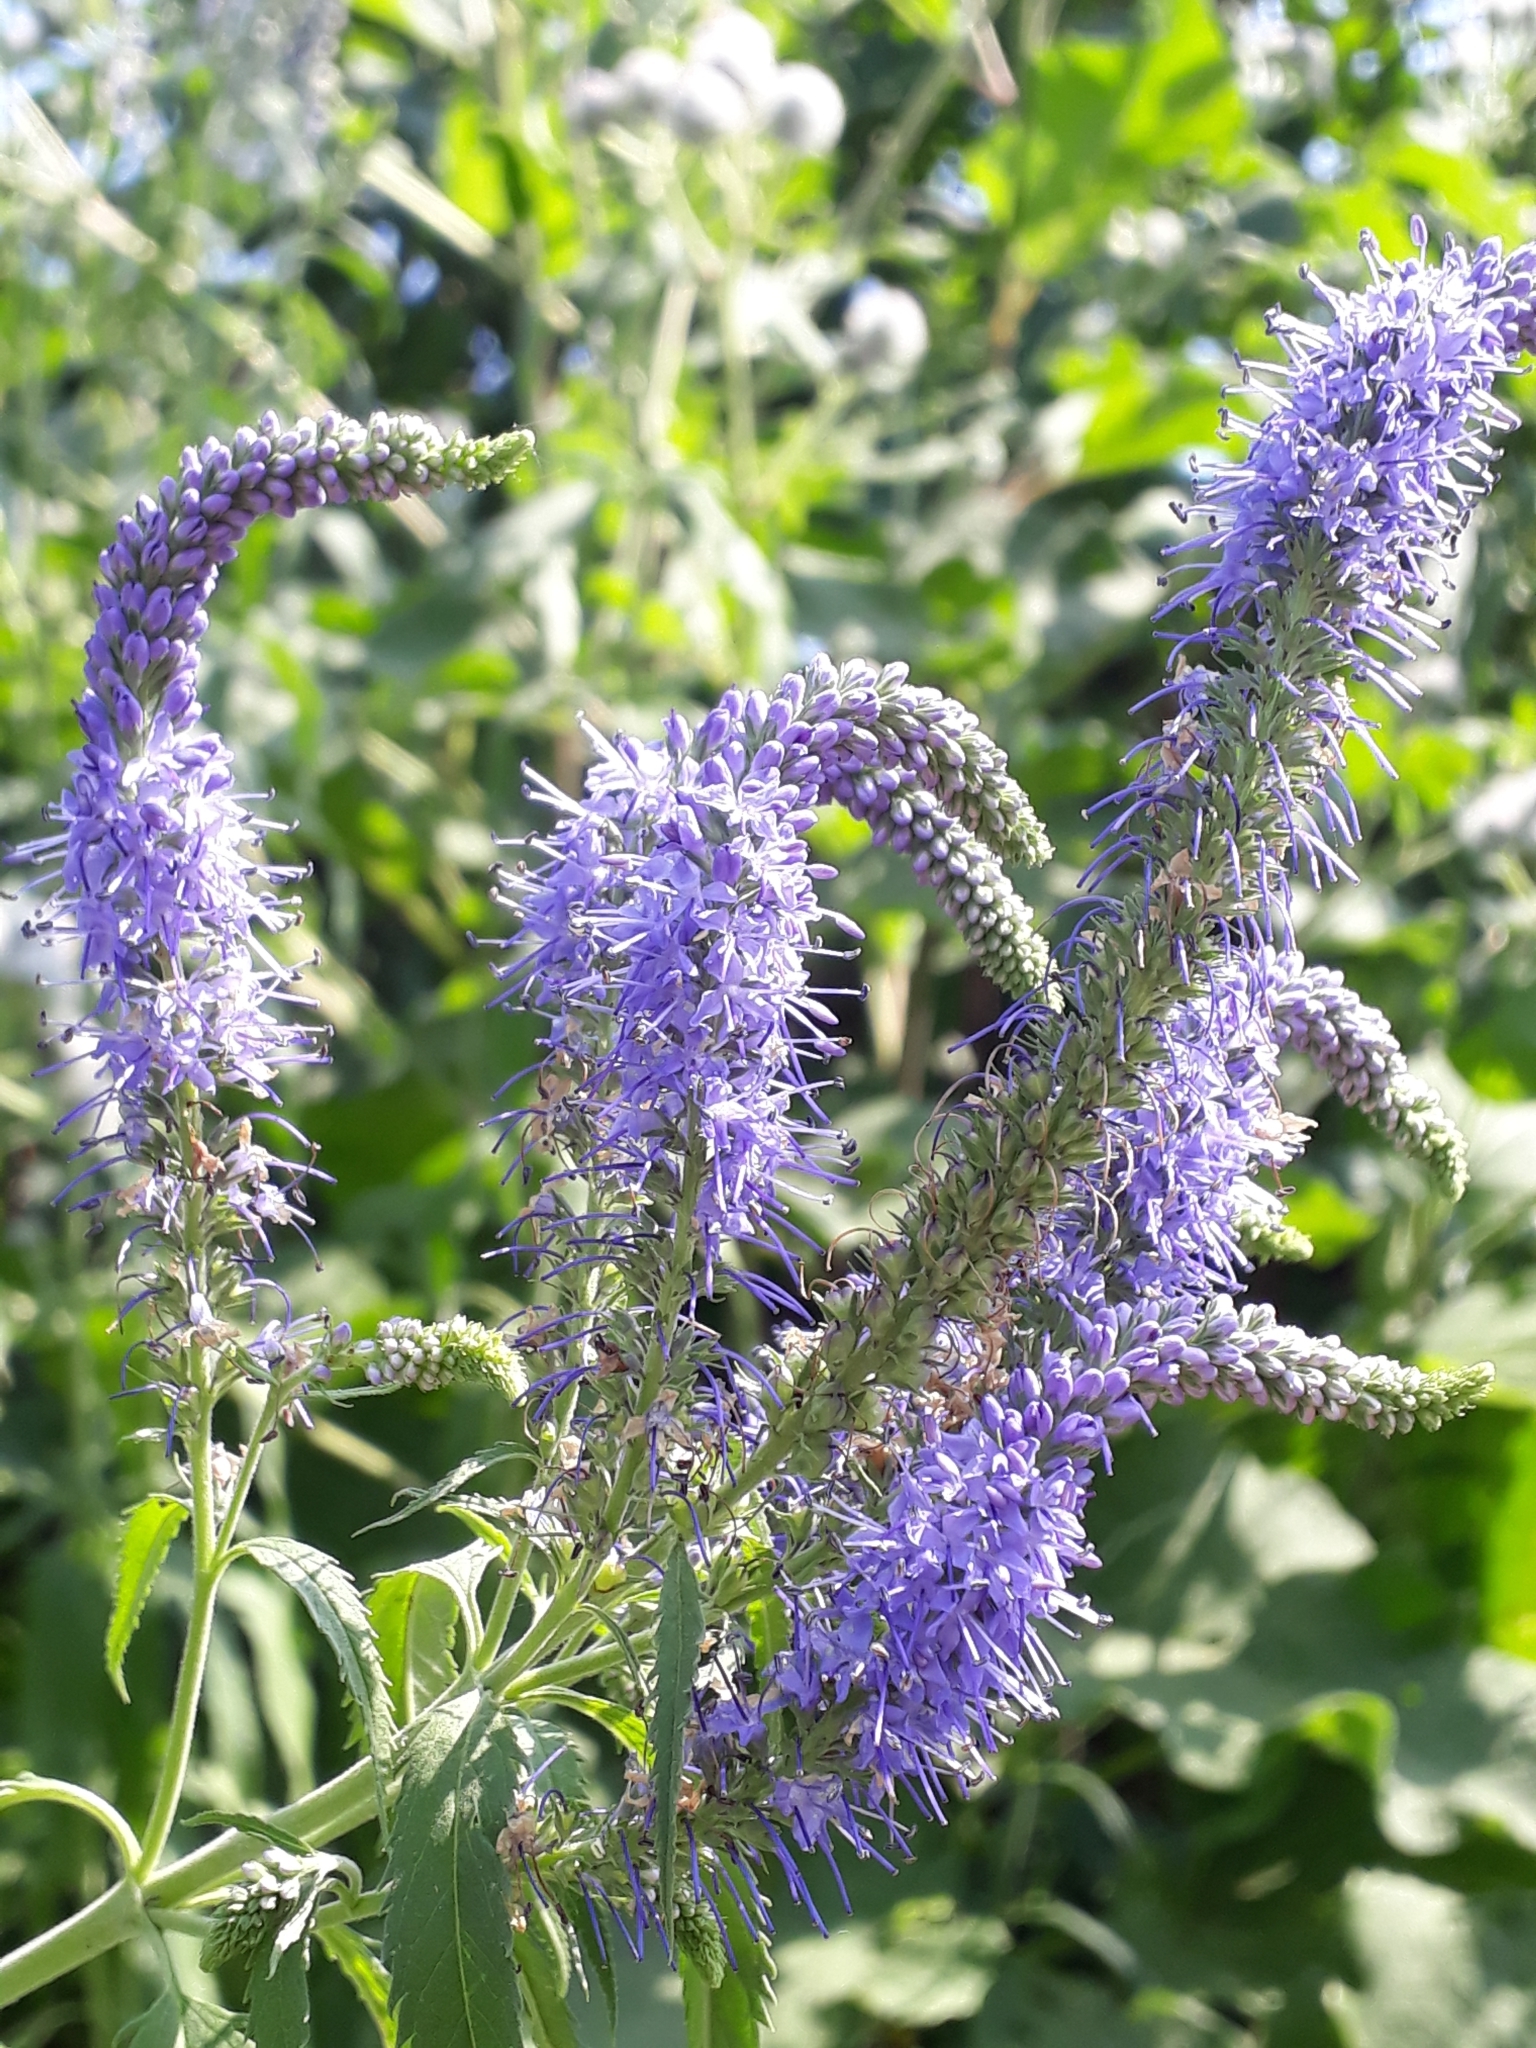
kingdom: Plantae
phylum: Tracheophyta
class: Magnoliopsida
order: Lamiales
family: Plantaginaceae
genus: Veronica
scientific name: Veronica longifolia
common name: Garden speedwell
